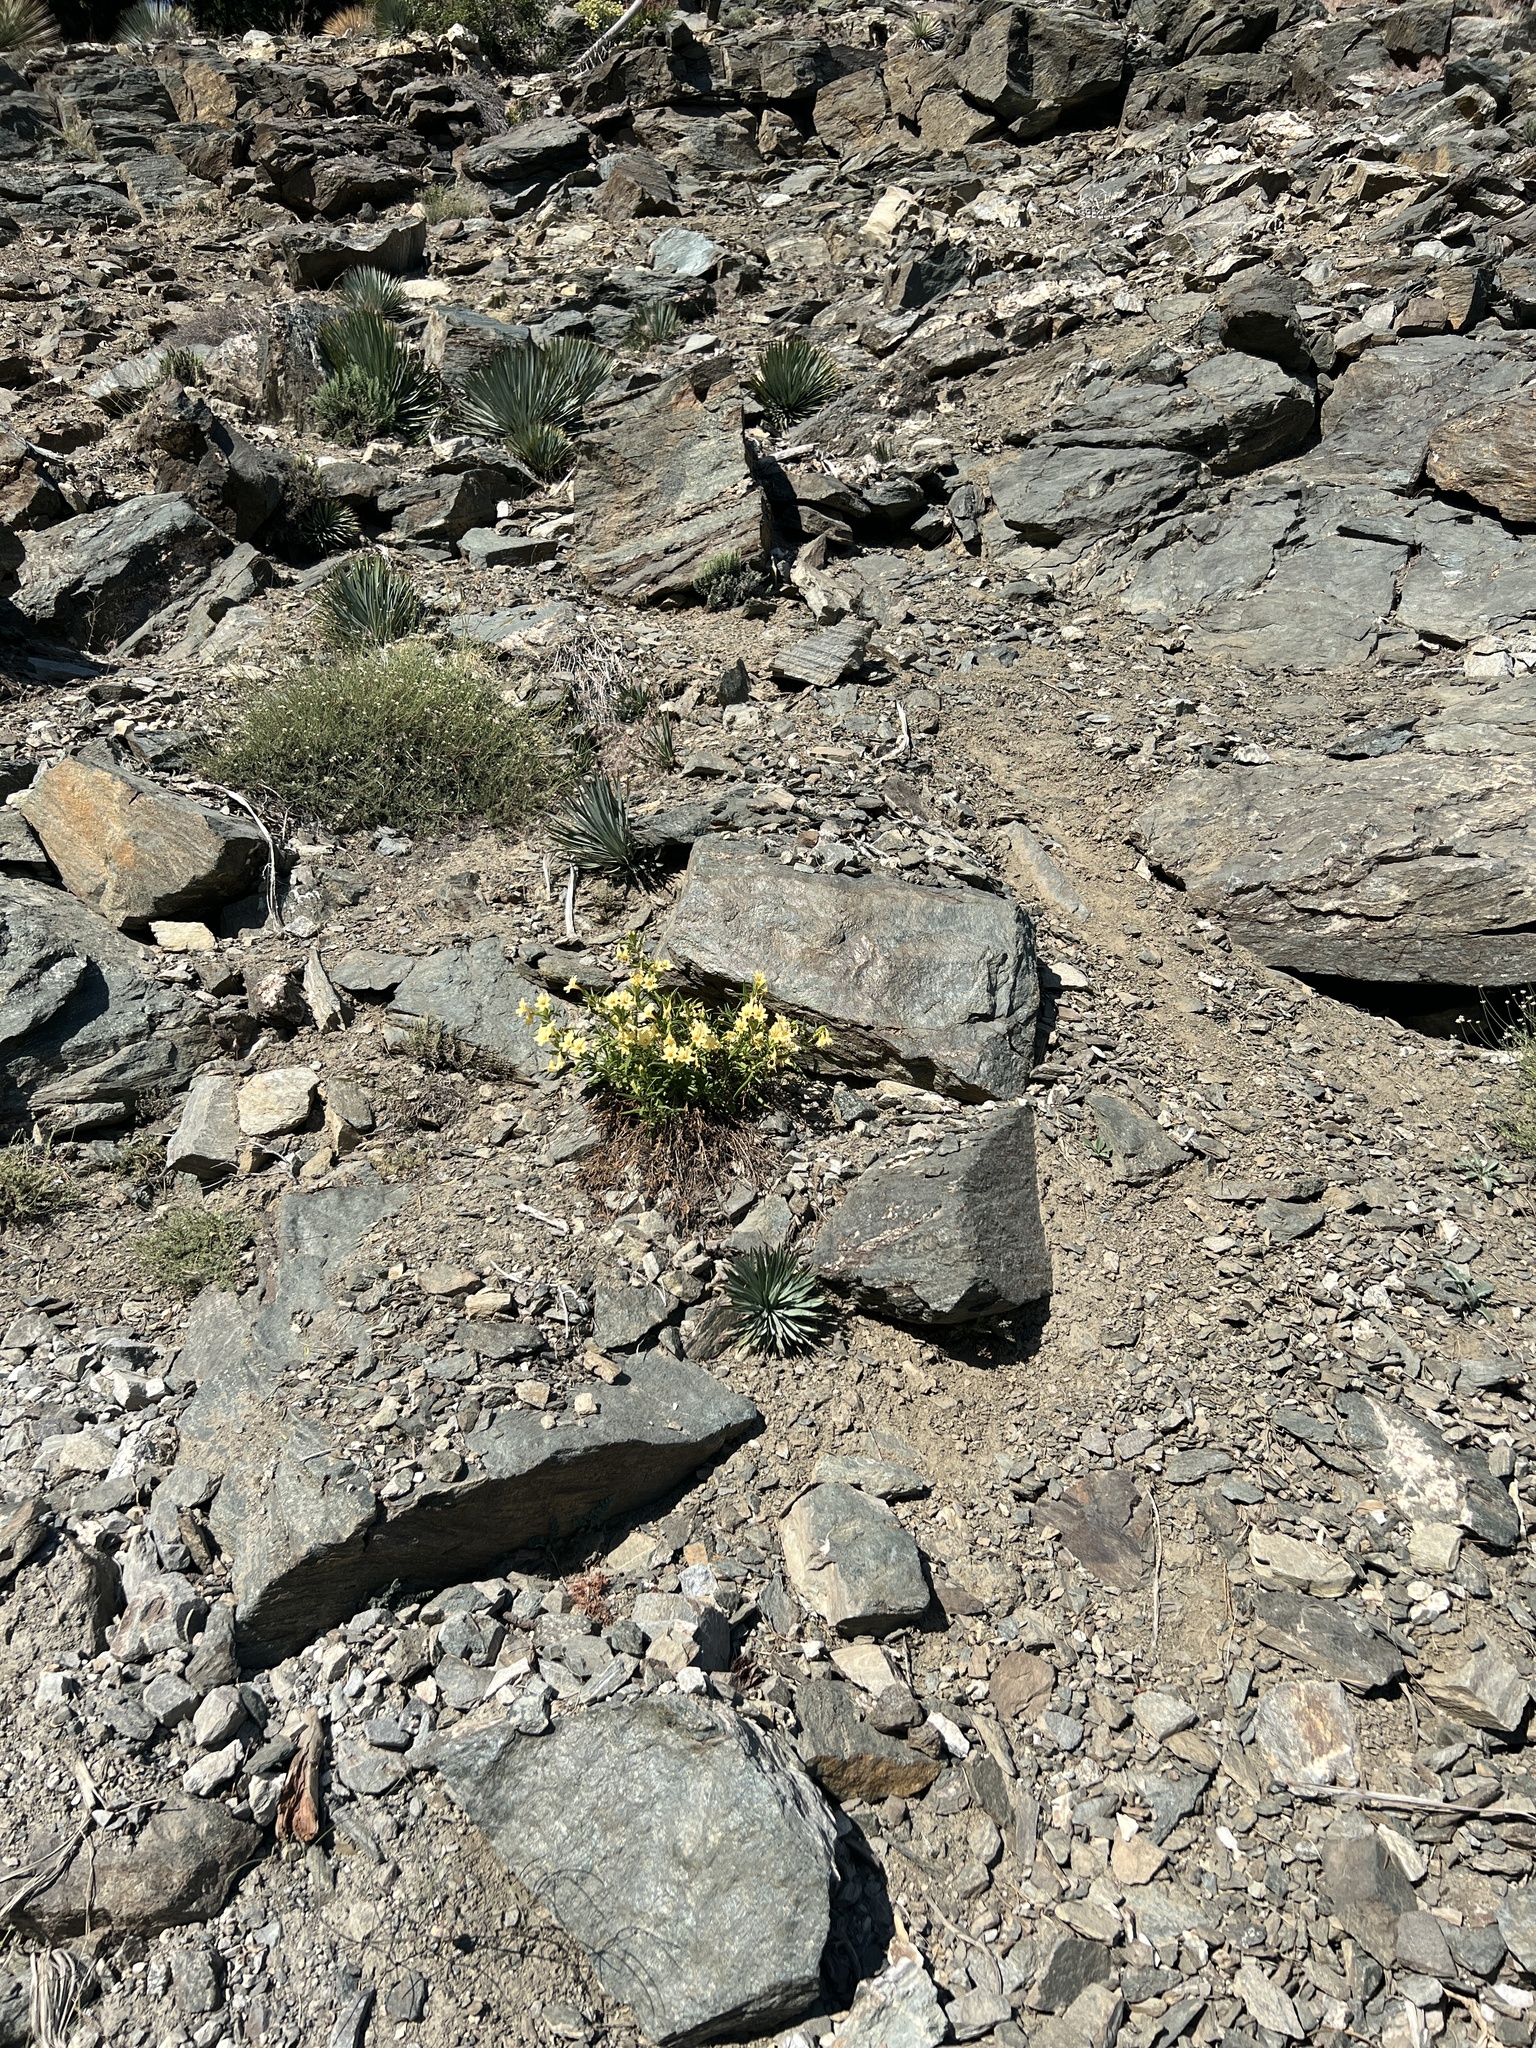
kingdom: Plantae
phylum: Tracheophyta
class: Magnoliopsida
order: Lamiales
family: Phrymaceae
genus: Diplacus
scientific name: Diplacus calycinus
